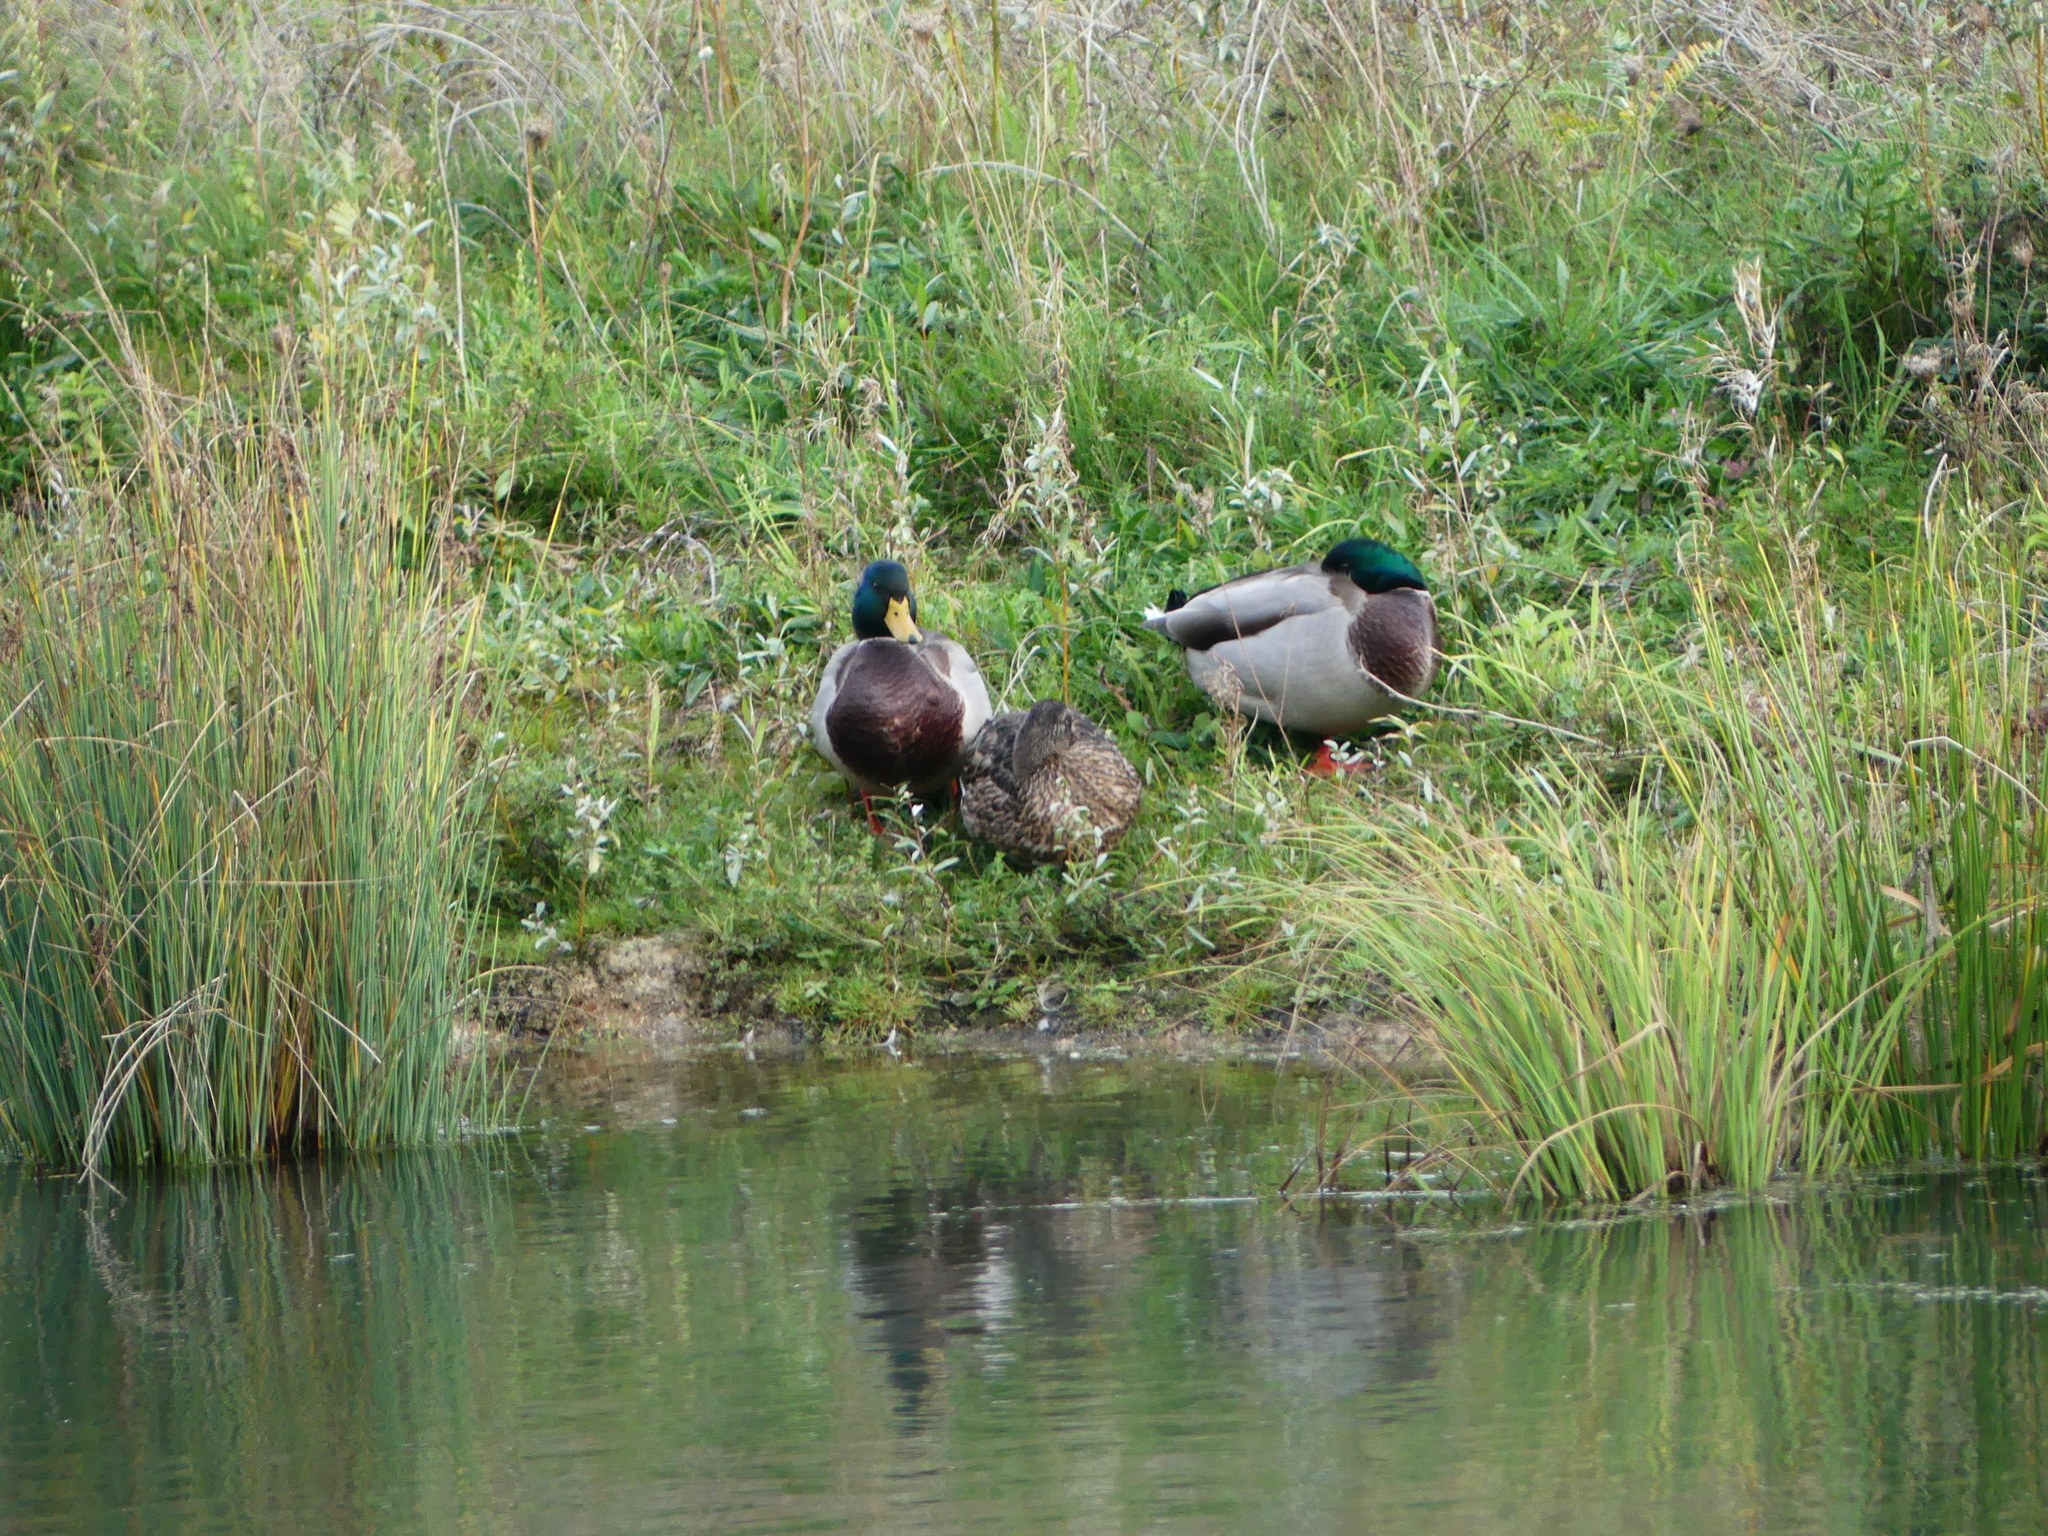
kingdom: Animalia
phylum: Chordata
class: Aves
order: Anseriformes
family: Anatidae
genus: Anas
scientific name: Anas platyrhynchos
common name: Mallard
